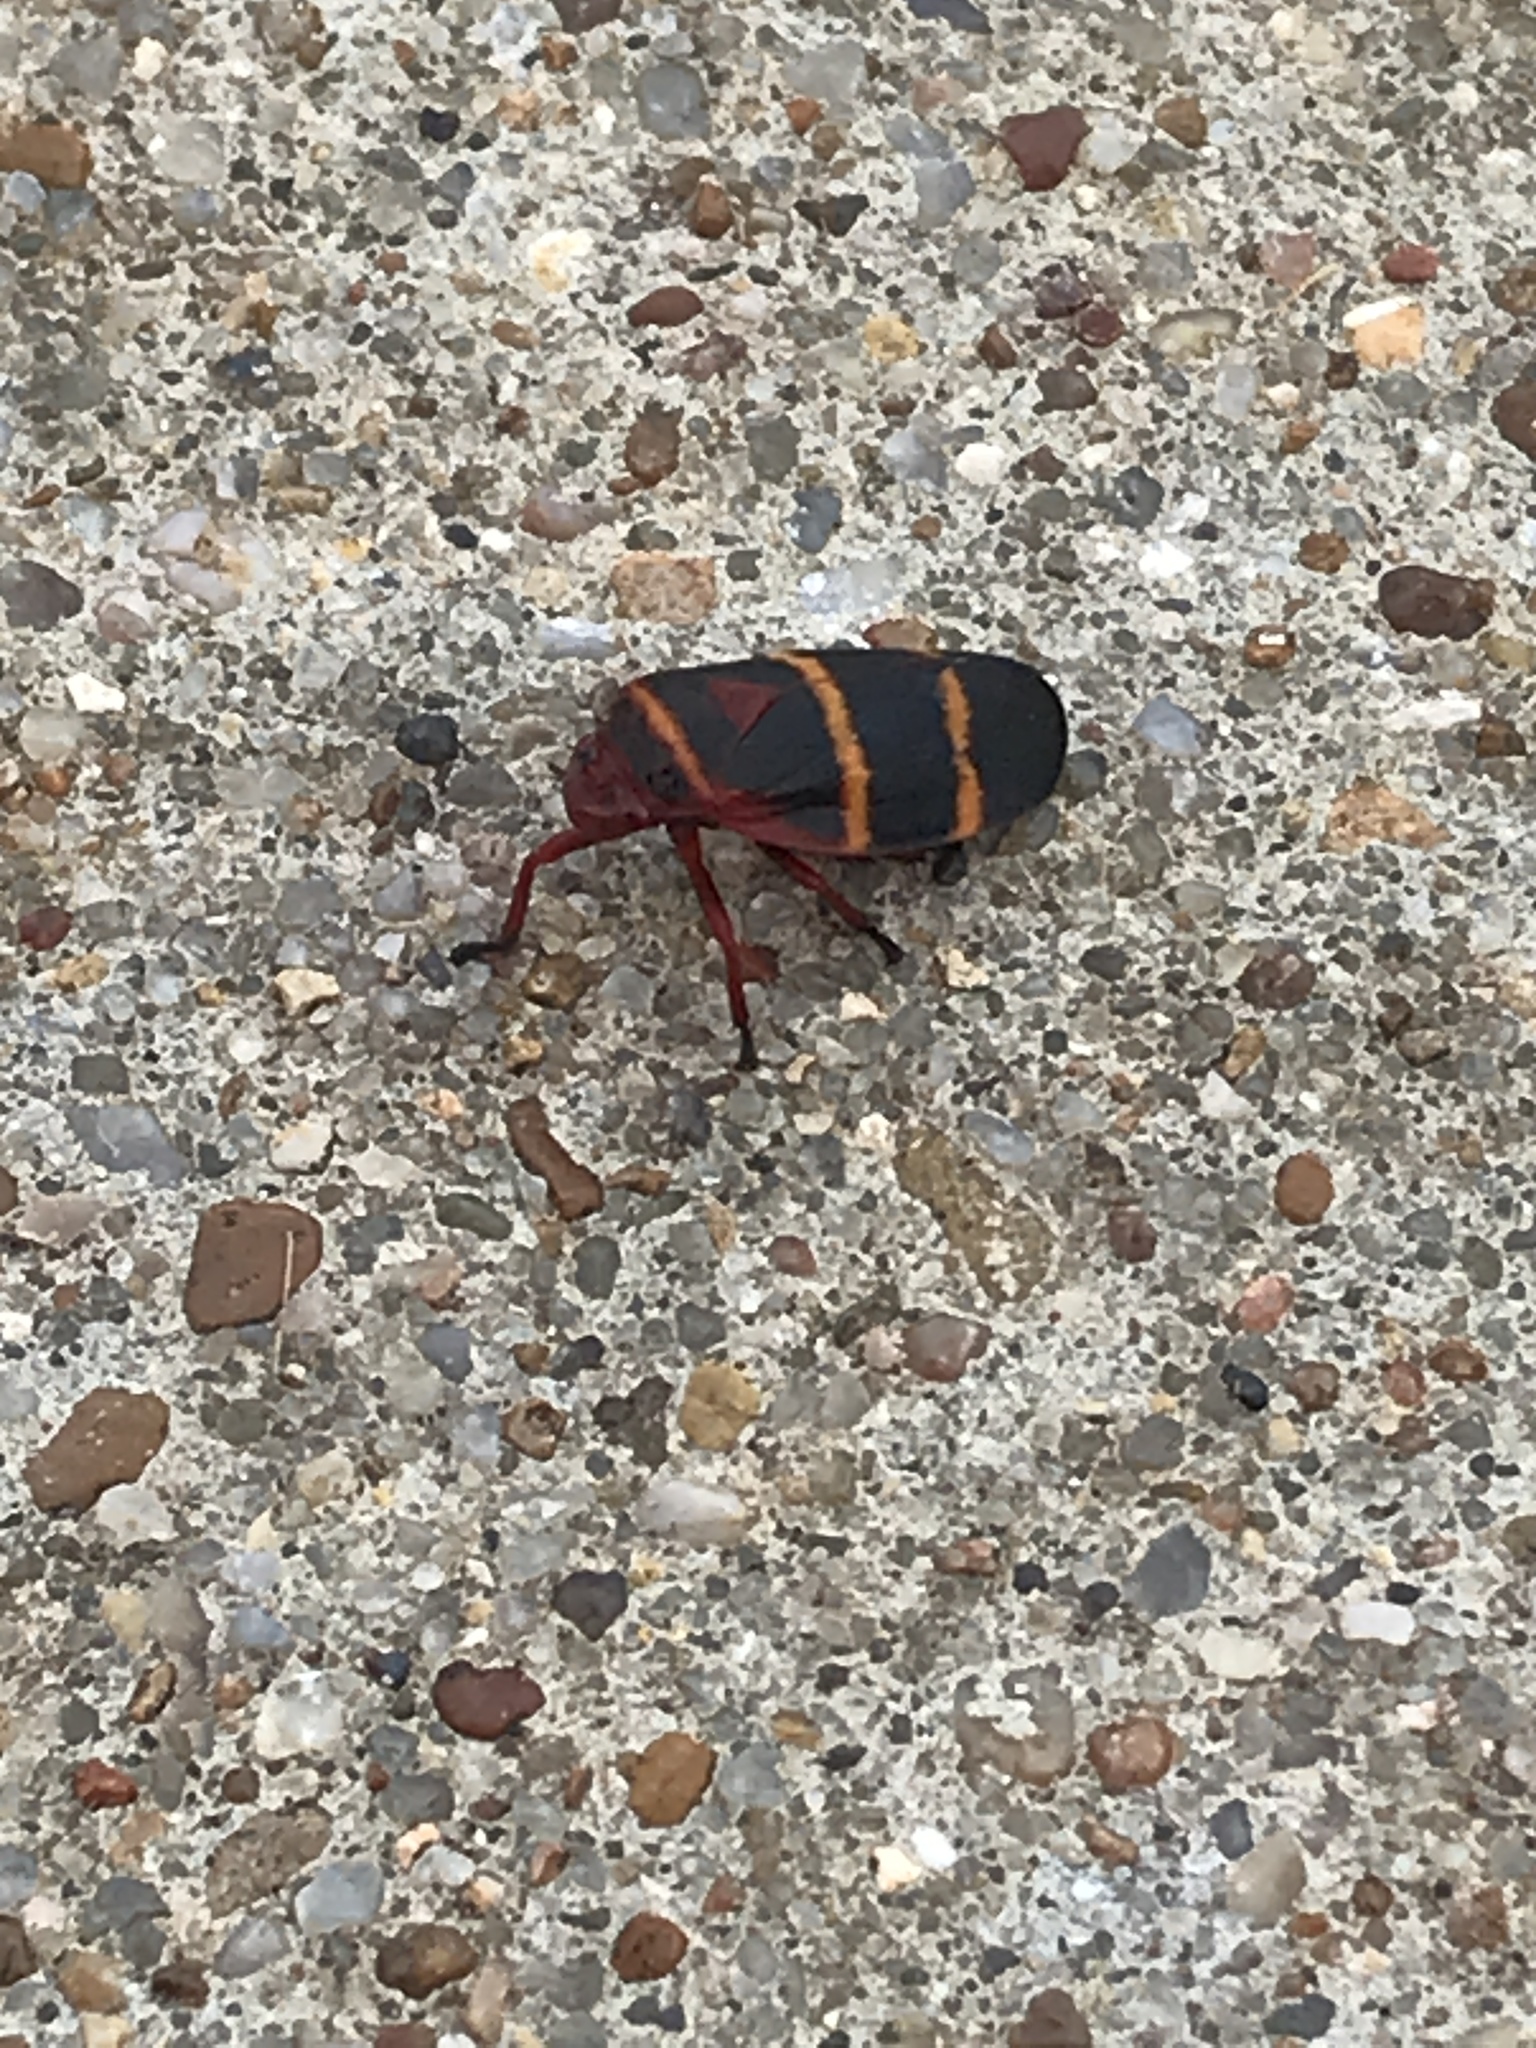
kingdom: Animalia
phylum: Arthropoda
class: Insecta
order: Hemiptera
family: Cercopidae
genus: Prosapia
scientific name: Prosapia bicincta
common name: Twolined spittlebug
